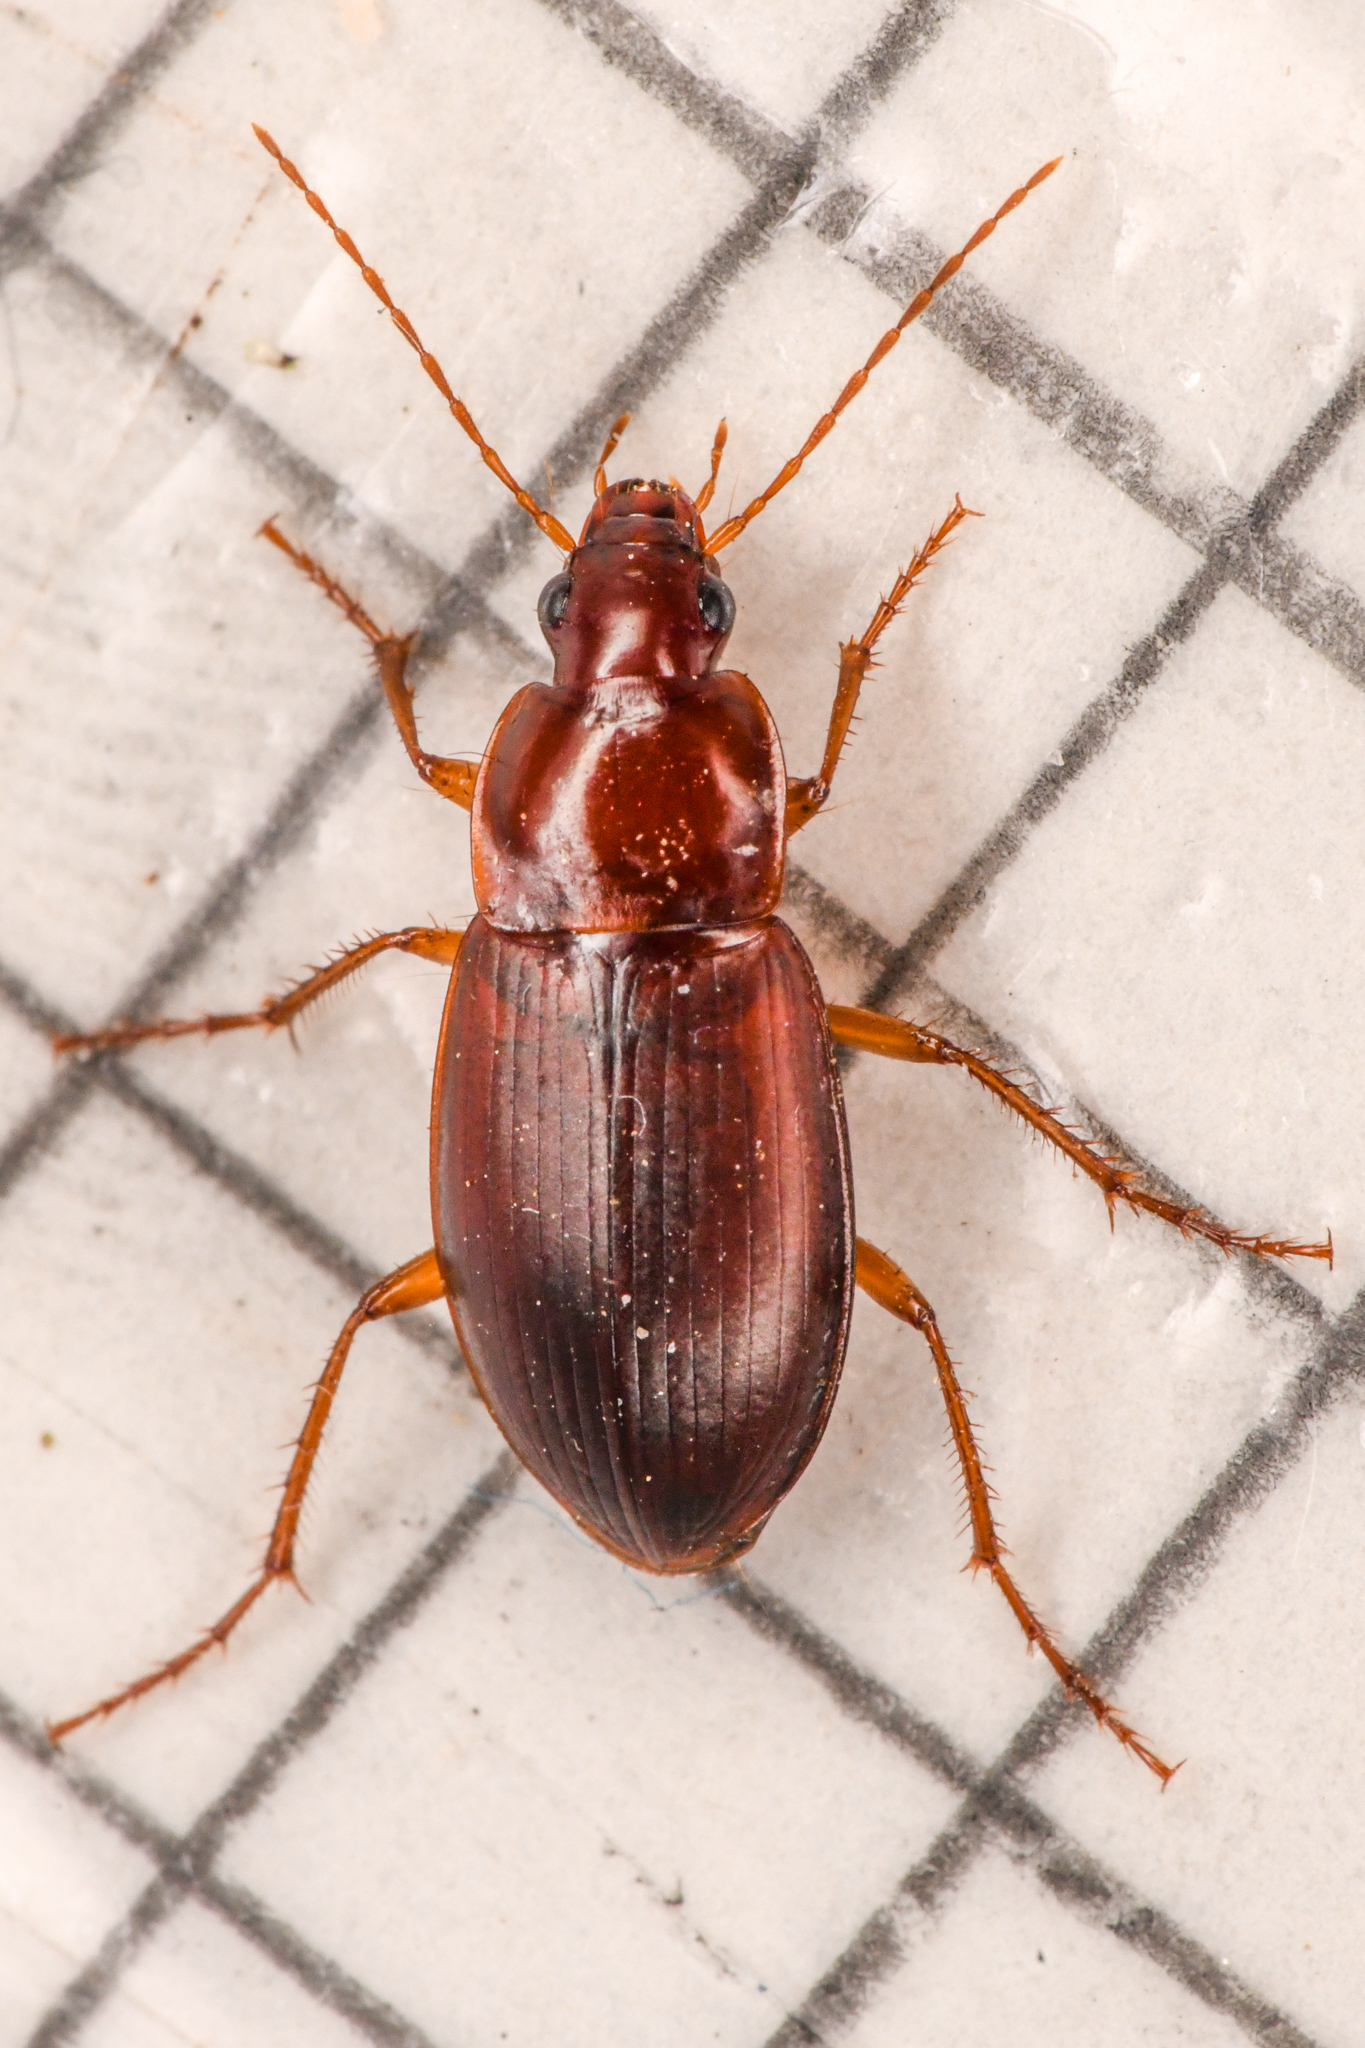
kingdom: Animalia
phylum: Arthropoda
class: Insecta
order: Coleoptera
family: Carabidae
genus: Calathus
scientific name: Calathus ruficollis
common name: Red-collared harp ground beetle
